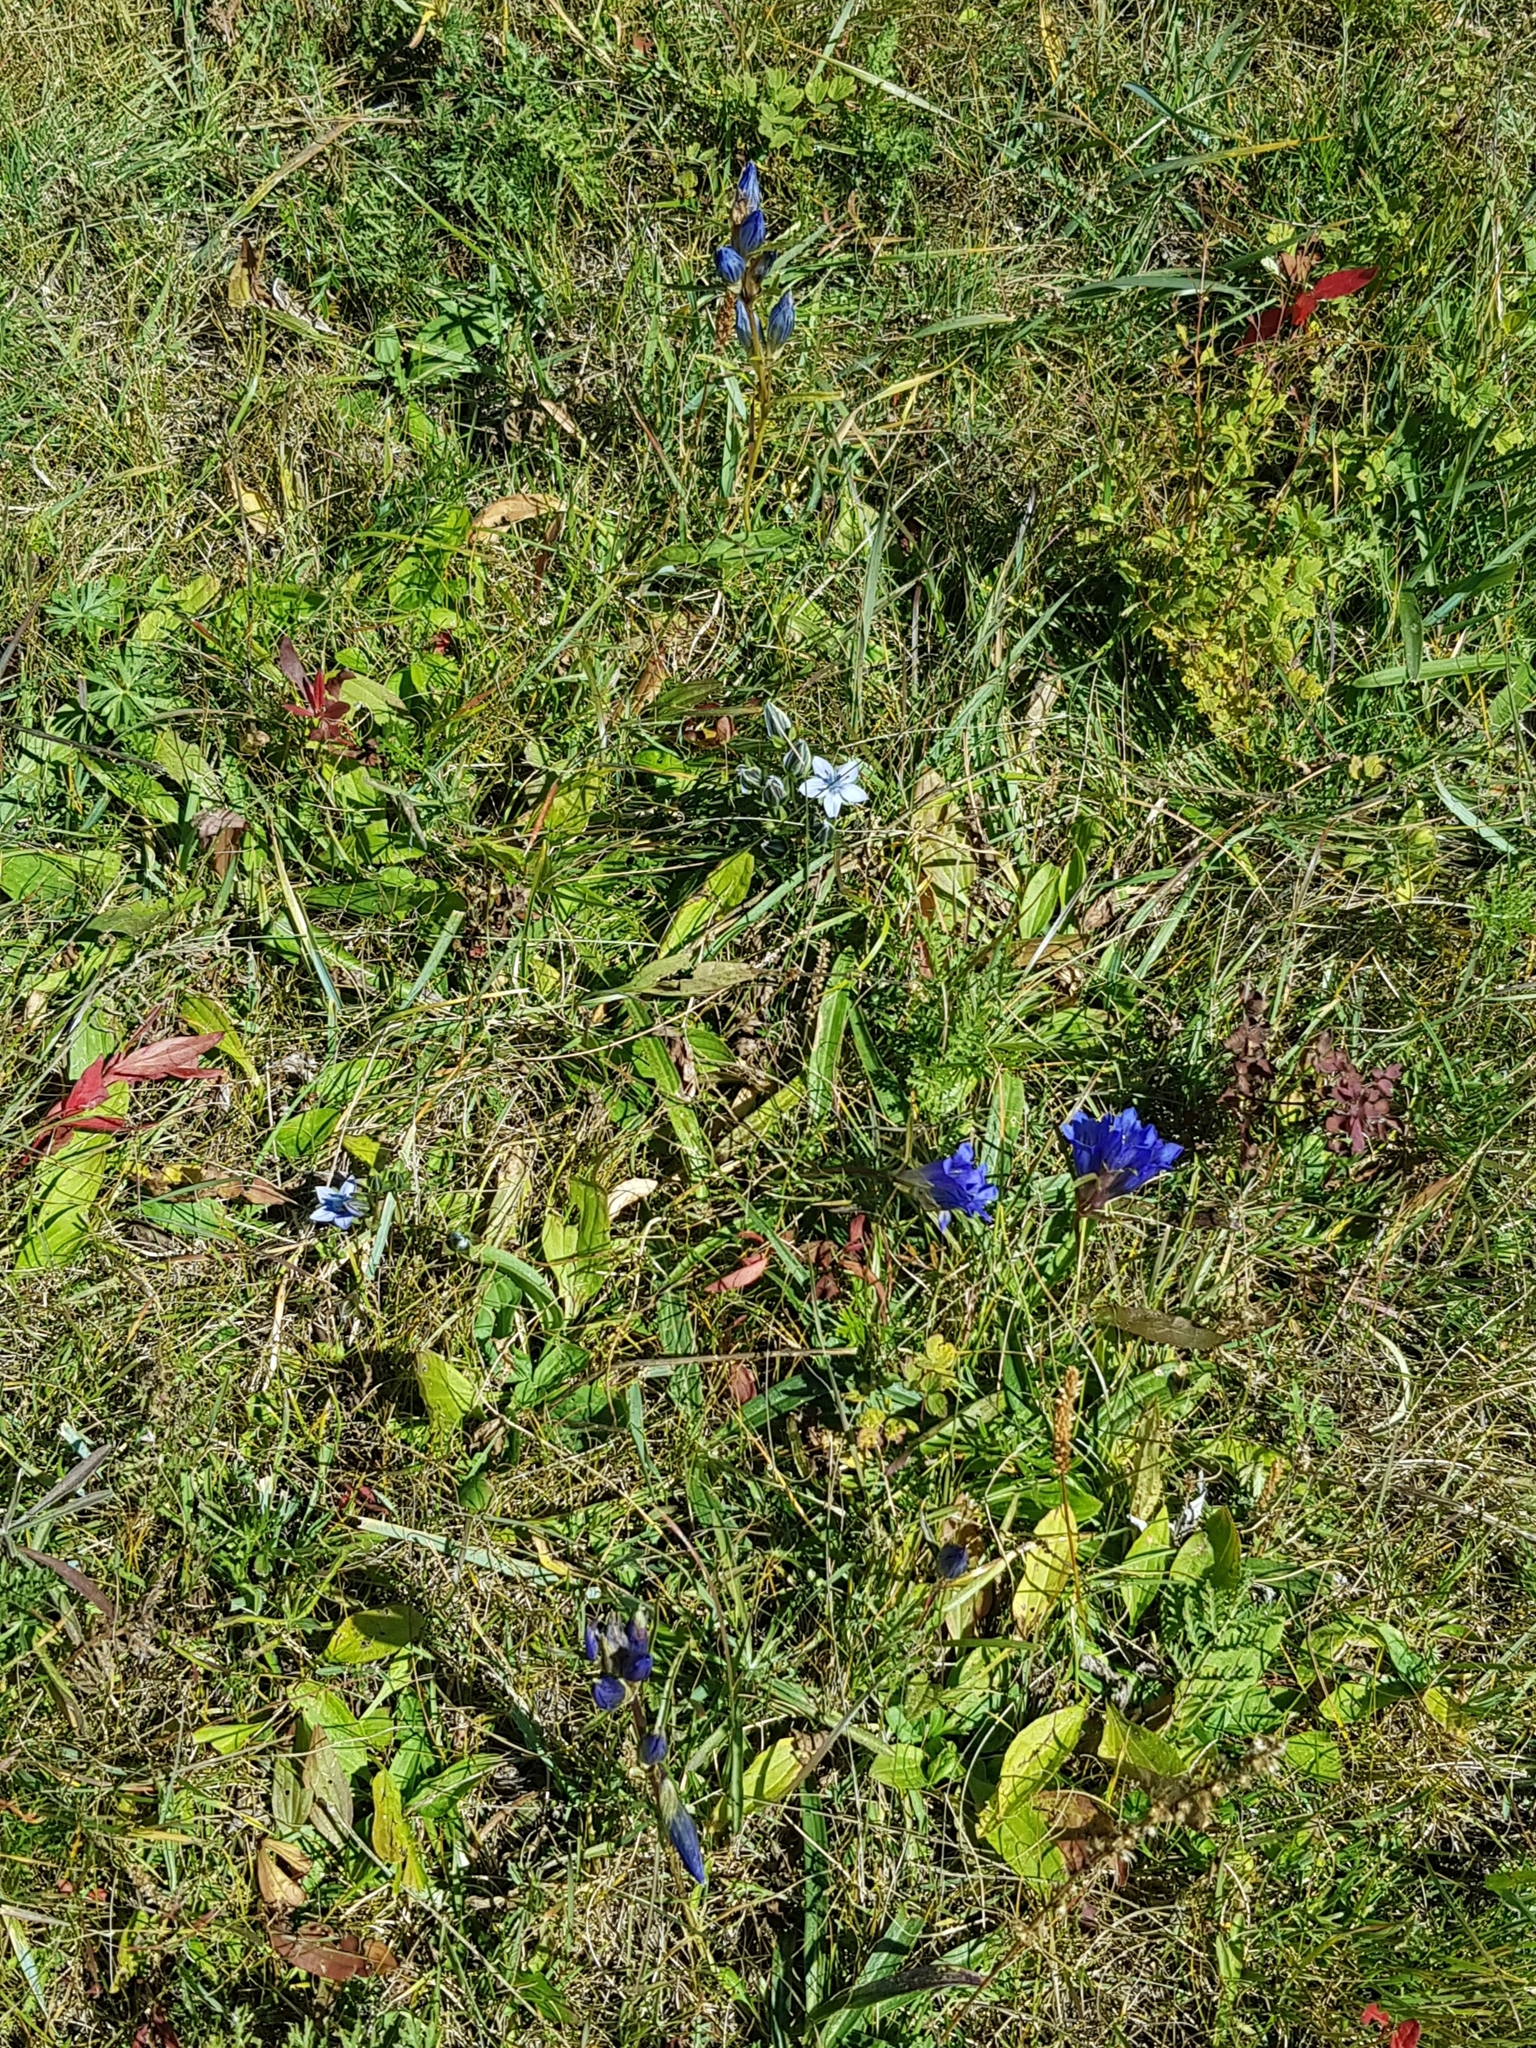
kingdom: Plantae
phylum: Tracheophyta
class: Magnoliopsida
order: Gentianales
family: Gentianaceae
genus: Gentiana
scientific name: Gentiana decumbens
